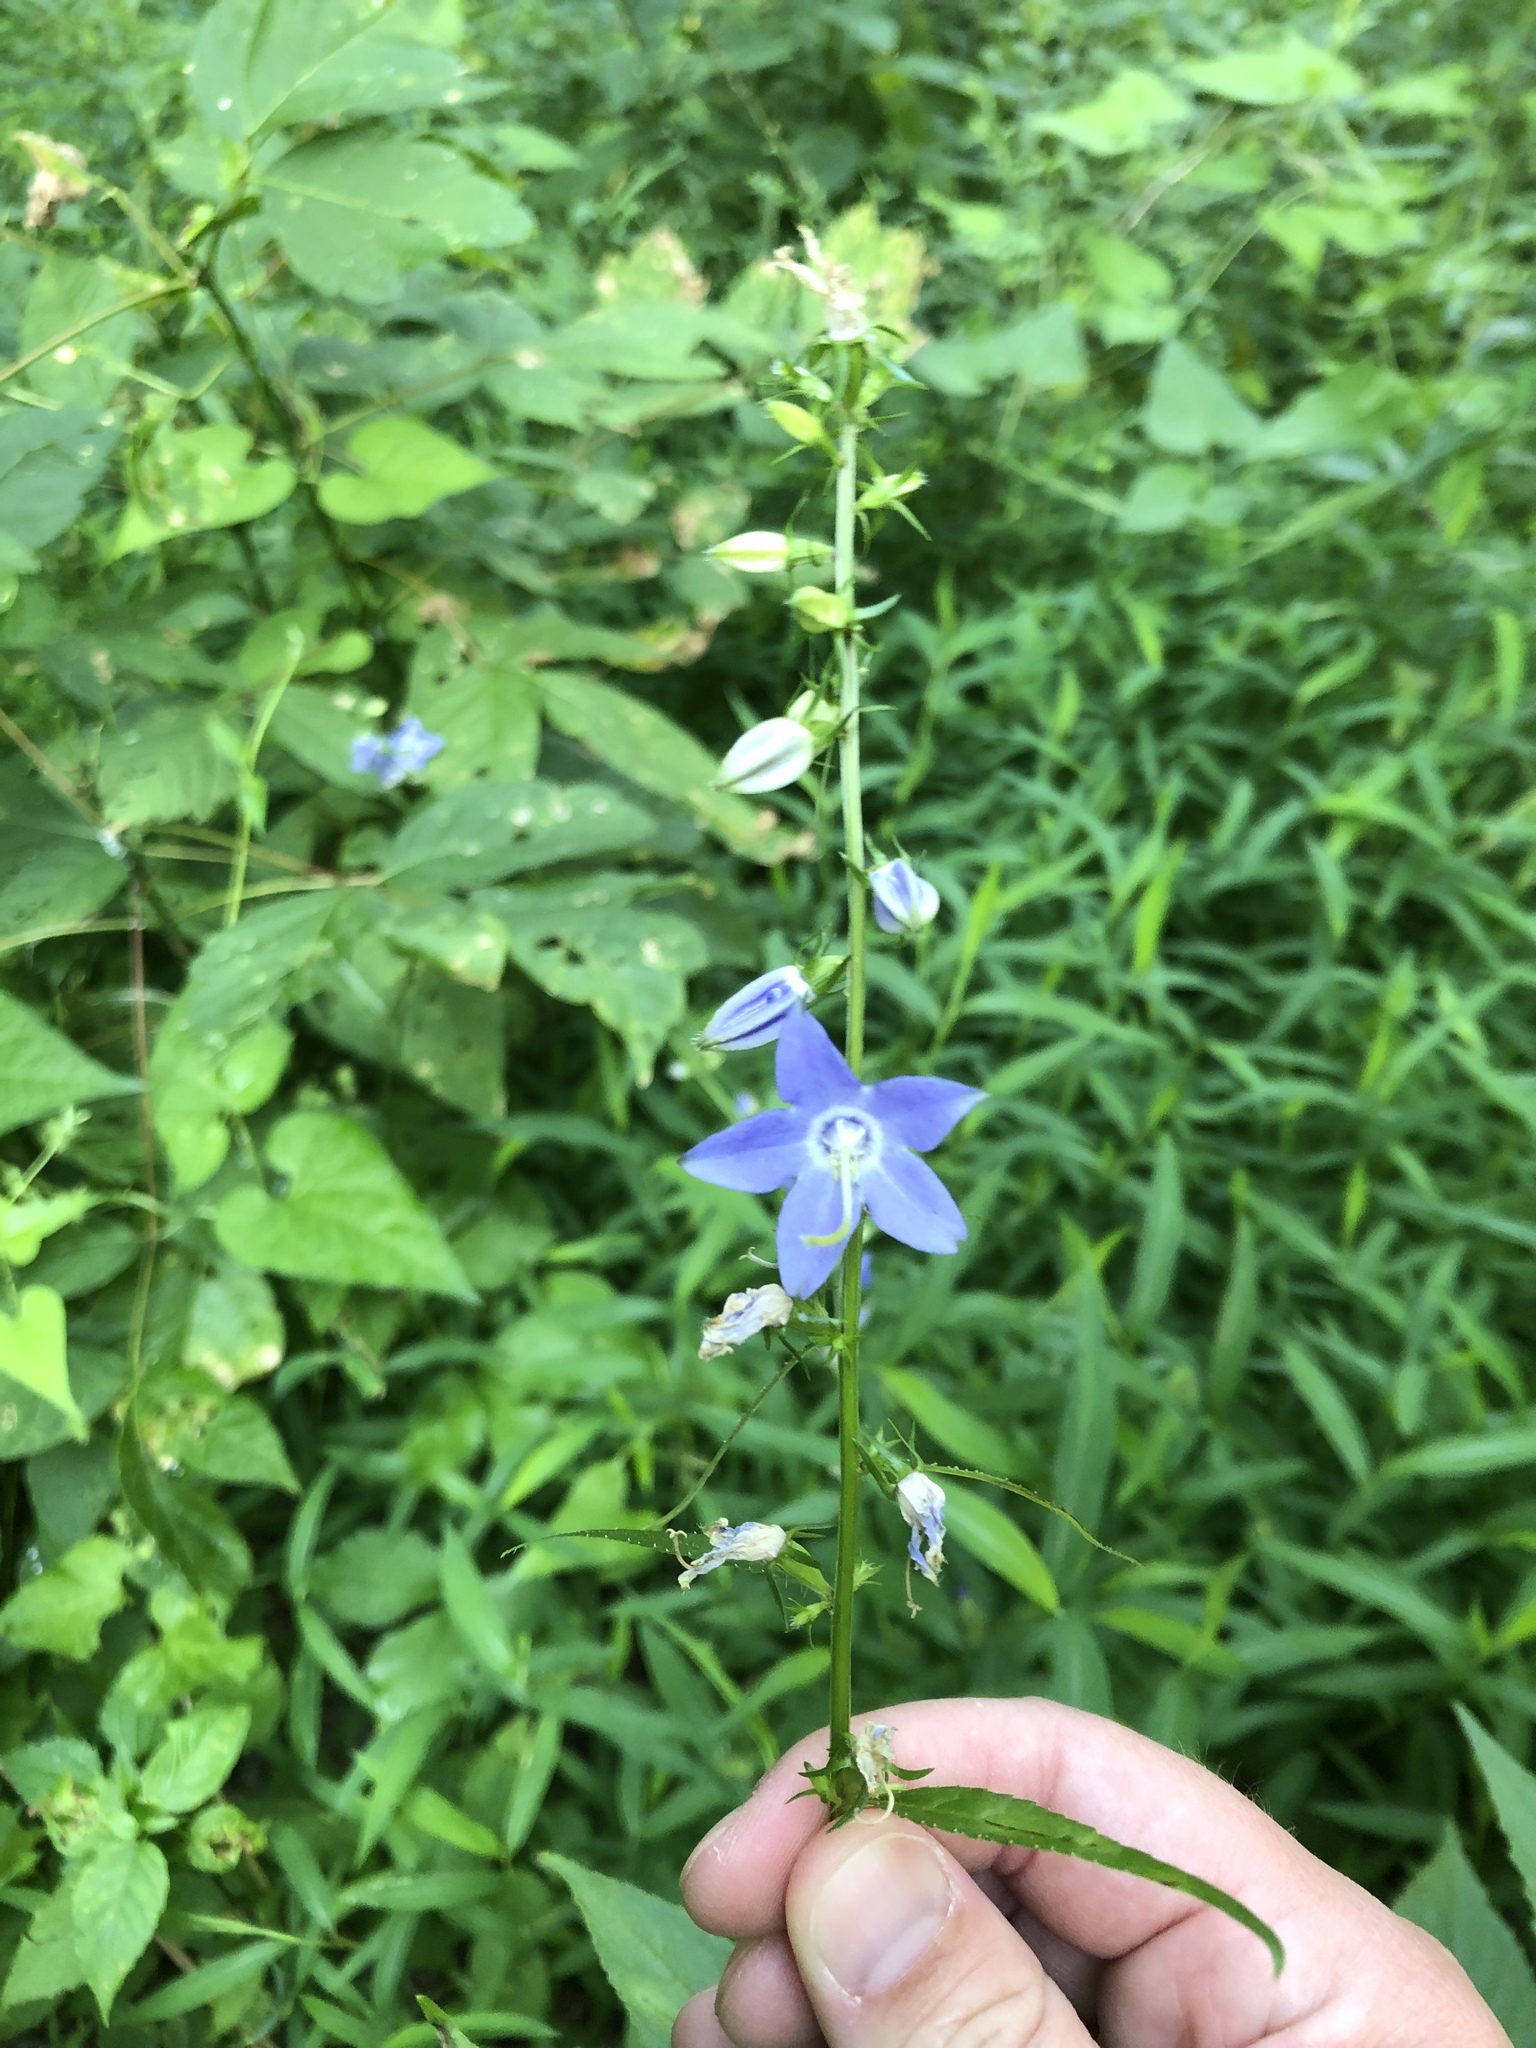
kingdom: Plantae
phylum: Tracheophyta
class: Magnoliopsida
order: Asterales
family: Campanulaceae
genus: Campanulastrum
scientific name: Campanulastrum americanum
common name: American bellflower
